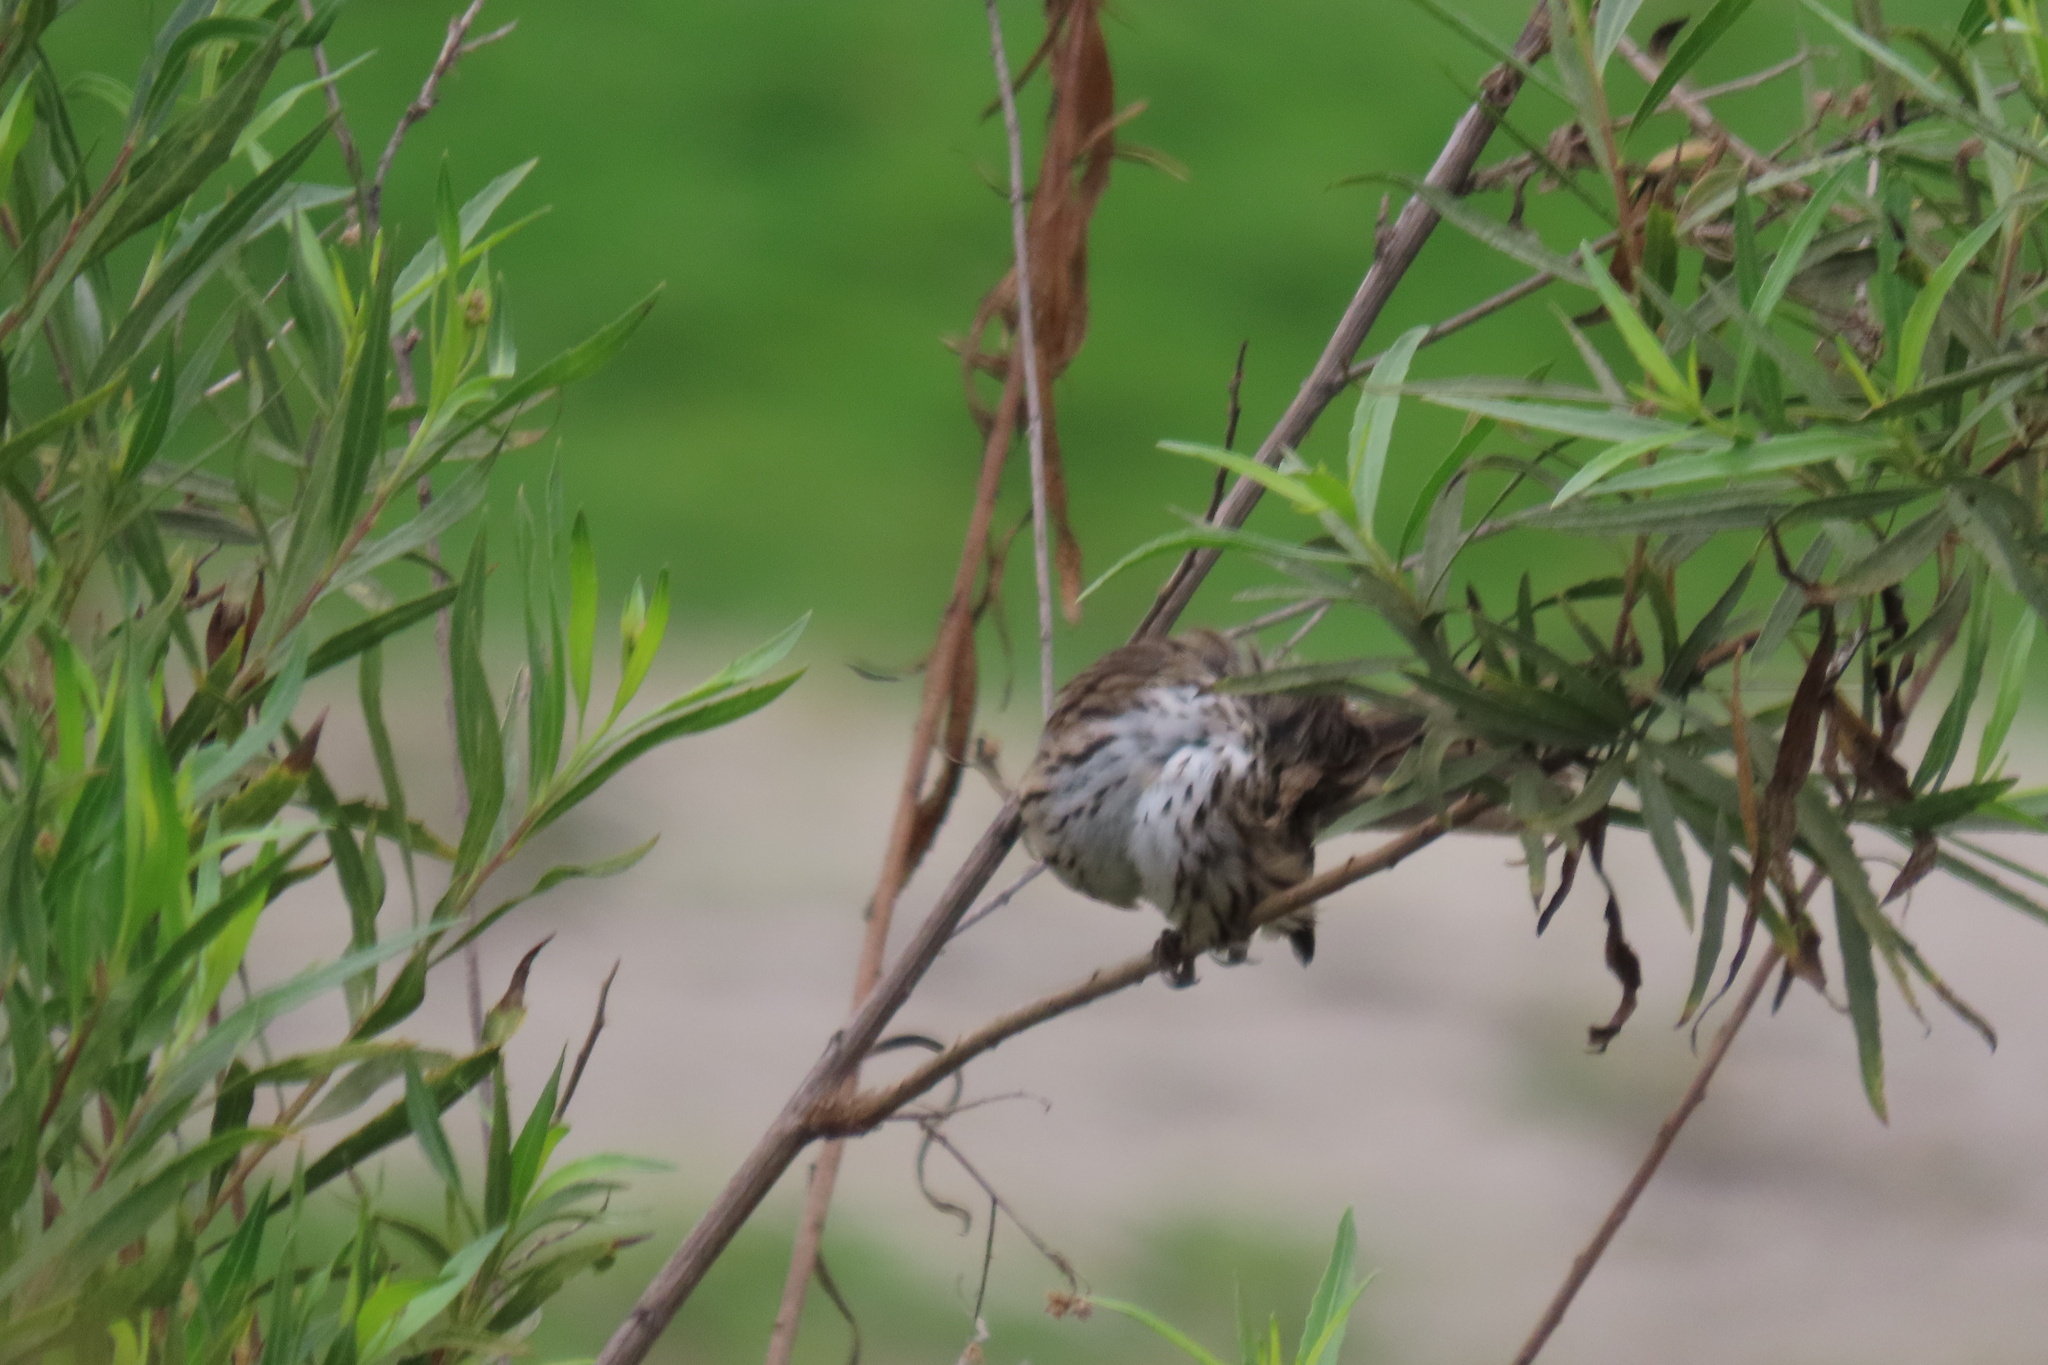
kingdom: Animalia
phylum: Chordata
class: Aves
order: Passeriformes
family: Passerellidae
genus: Melospiza
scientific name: Melospiza melodia
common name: Song sparrow
